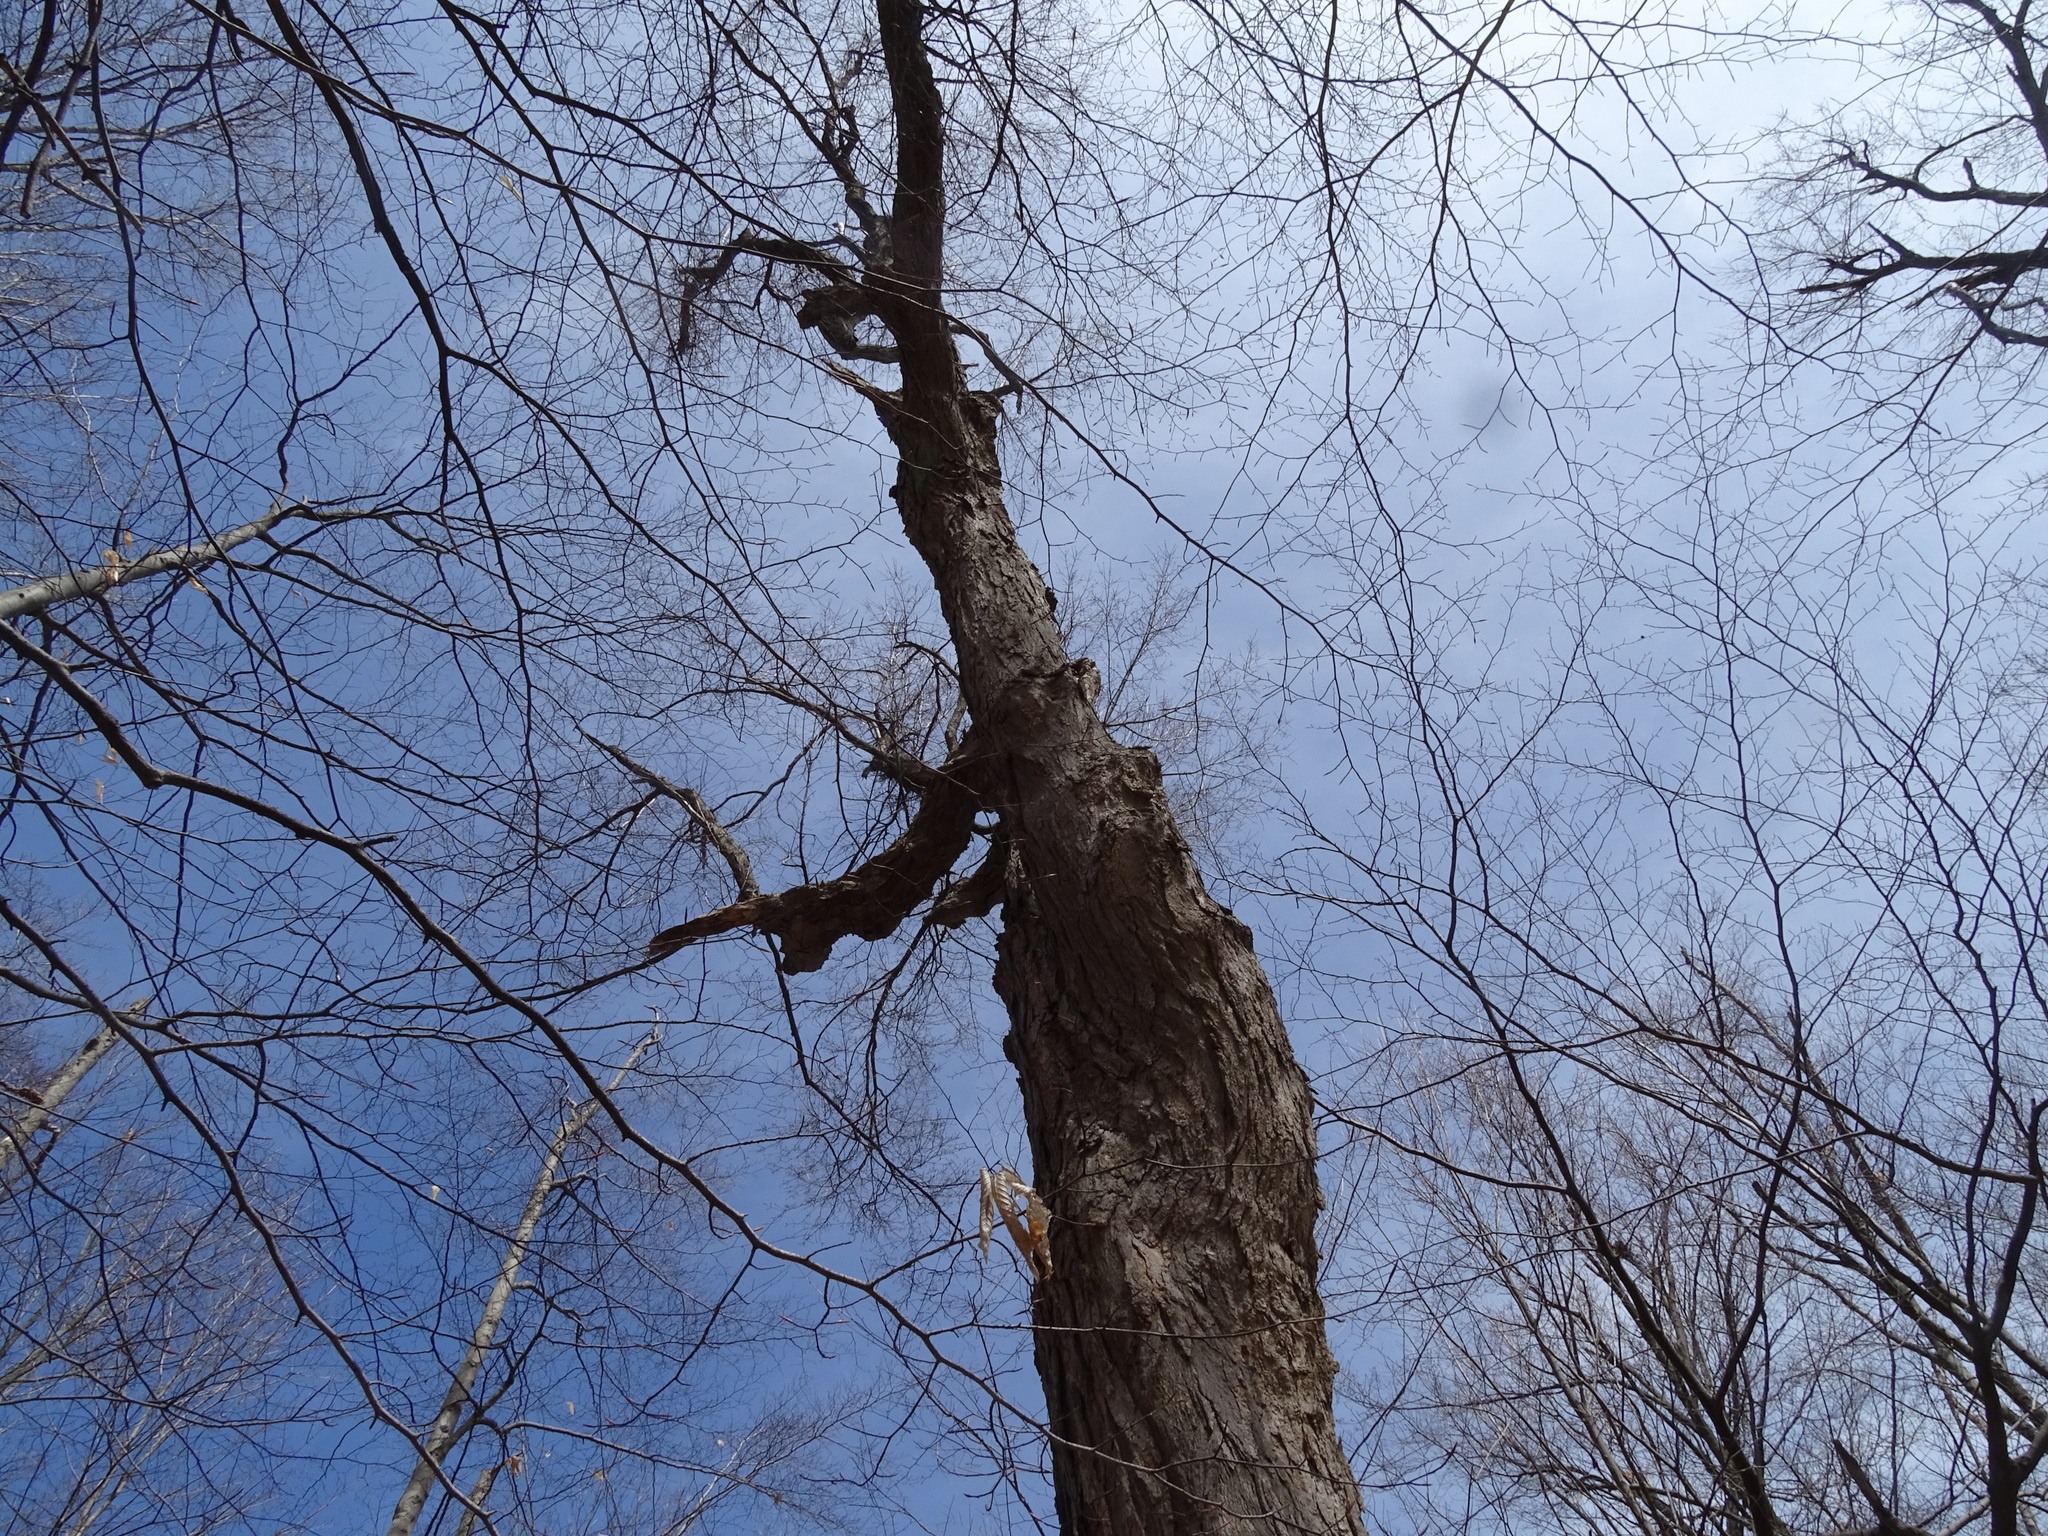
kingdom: Plantae
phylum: Tracheophyta
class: Magnoliopsida
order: Sapindales
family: Sapindaceae
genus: Acer
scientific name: Acer saccharum
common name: Sugar maple
